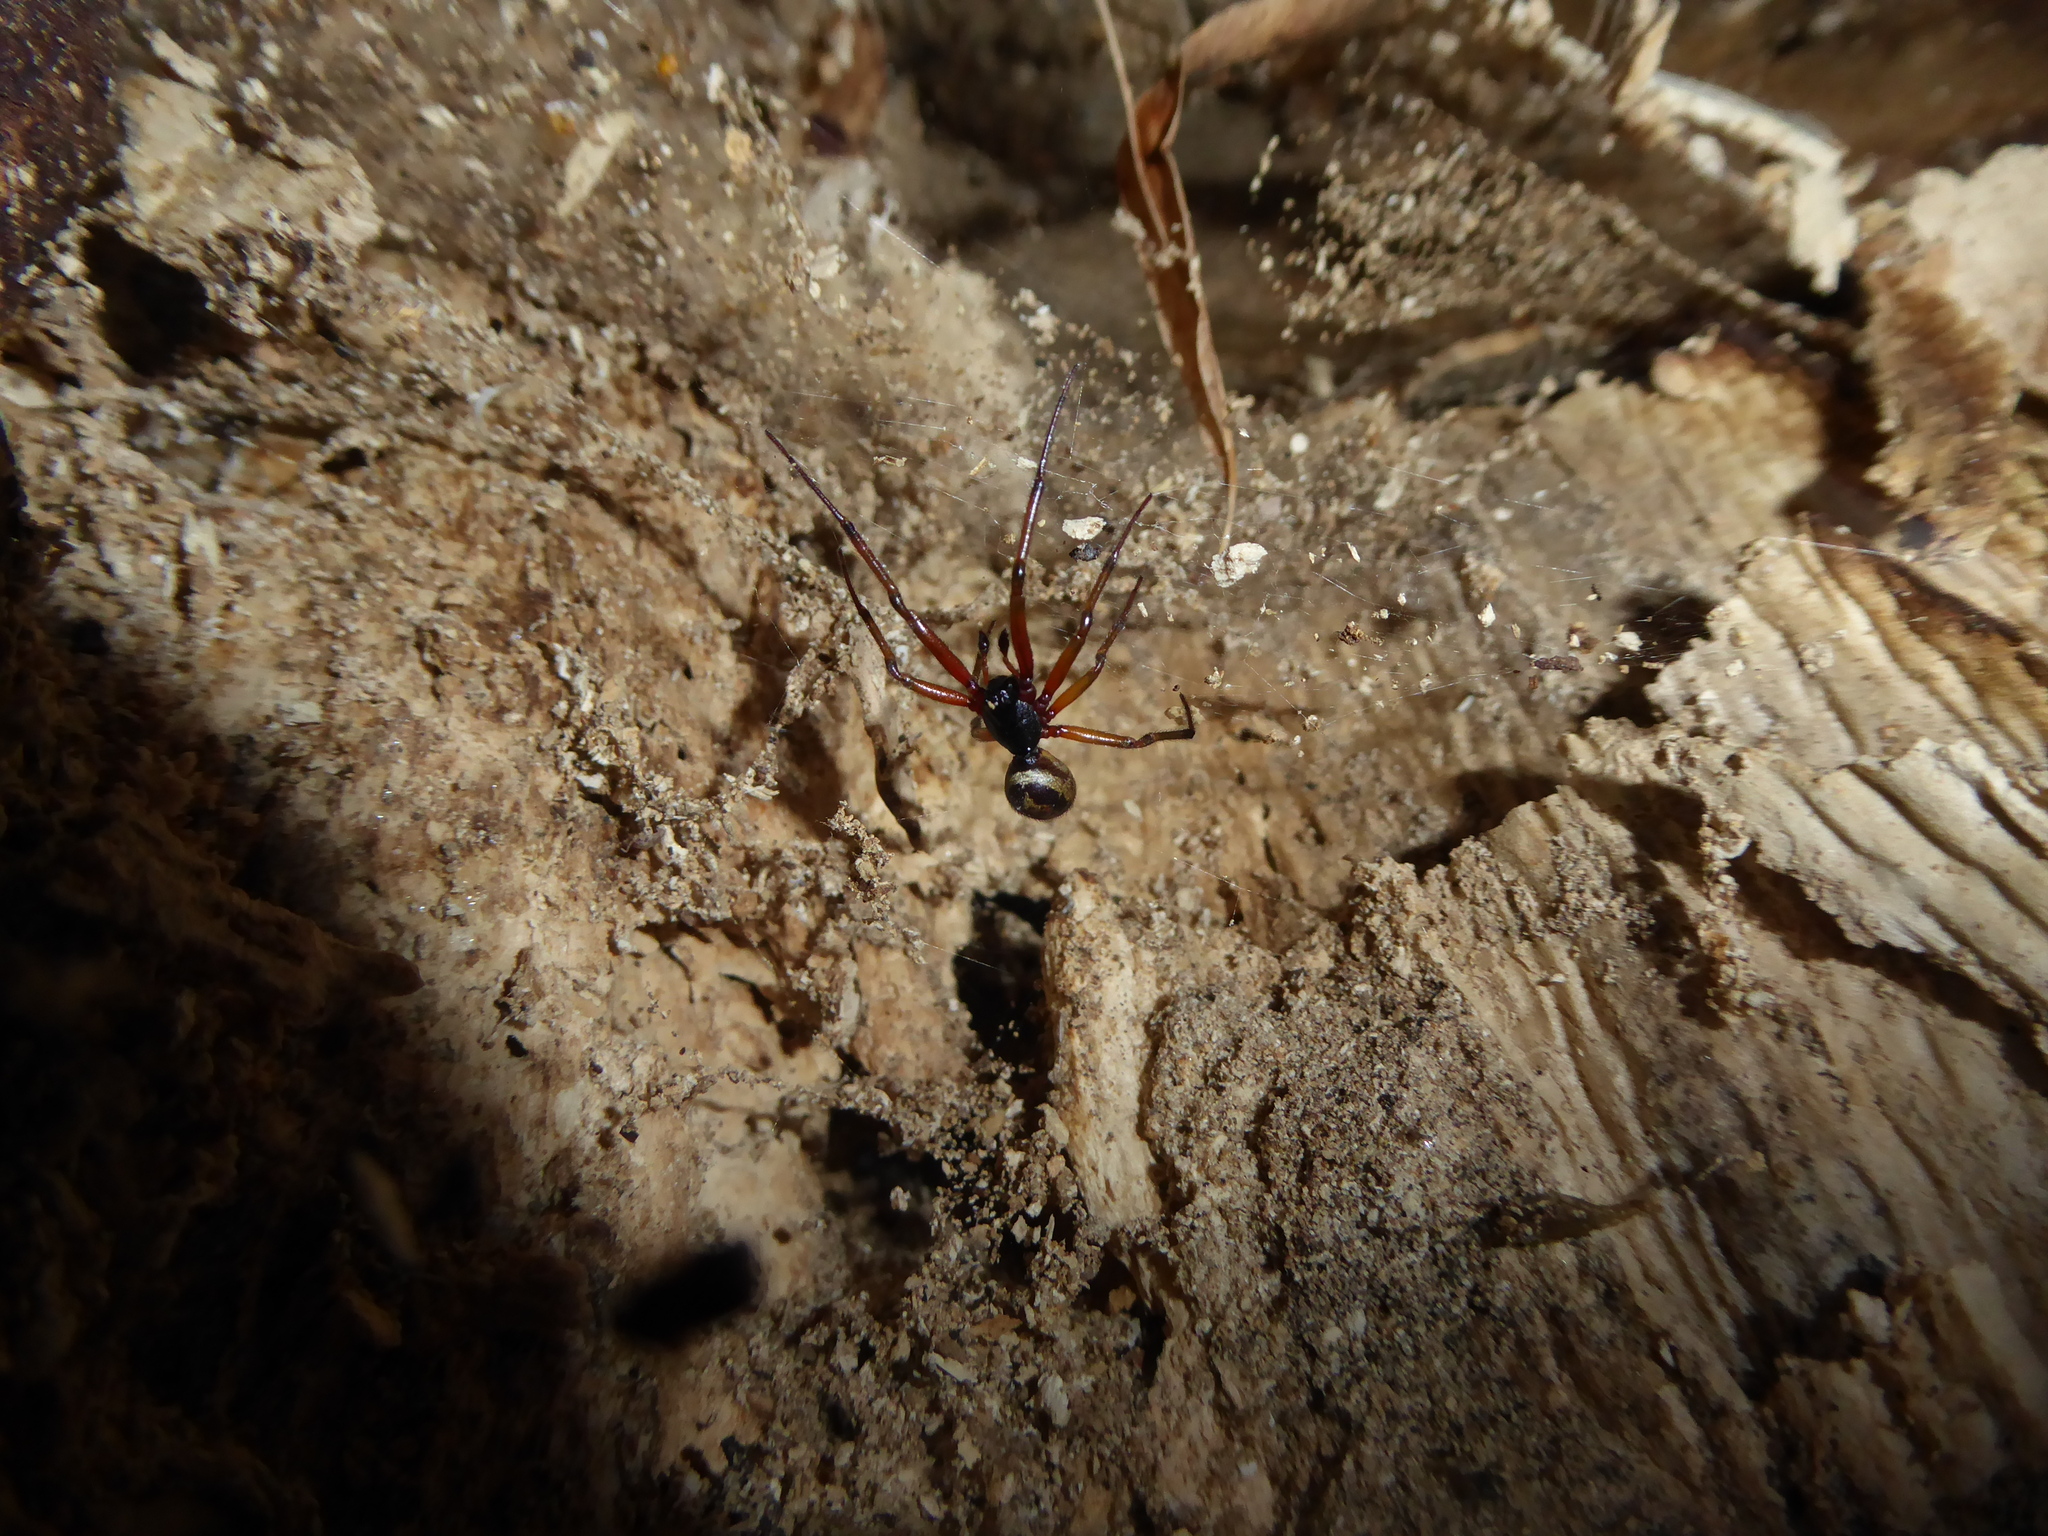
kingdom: Animalia
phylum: Arthropoda
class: Arachnida
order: Araneae
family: Theridiidae
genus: Steatoda
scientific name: Steatoda nobilis
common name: Cobweb weaver
